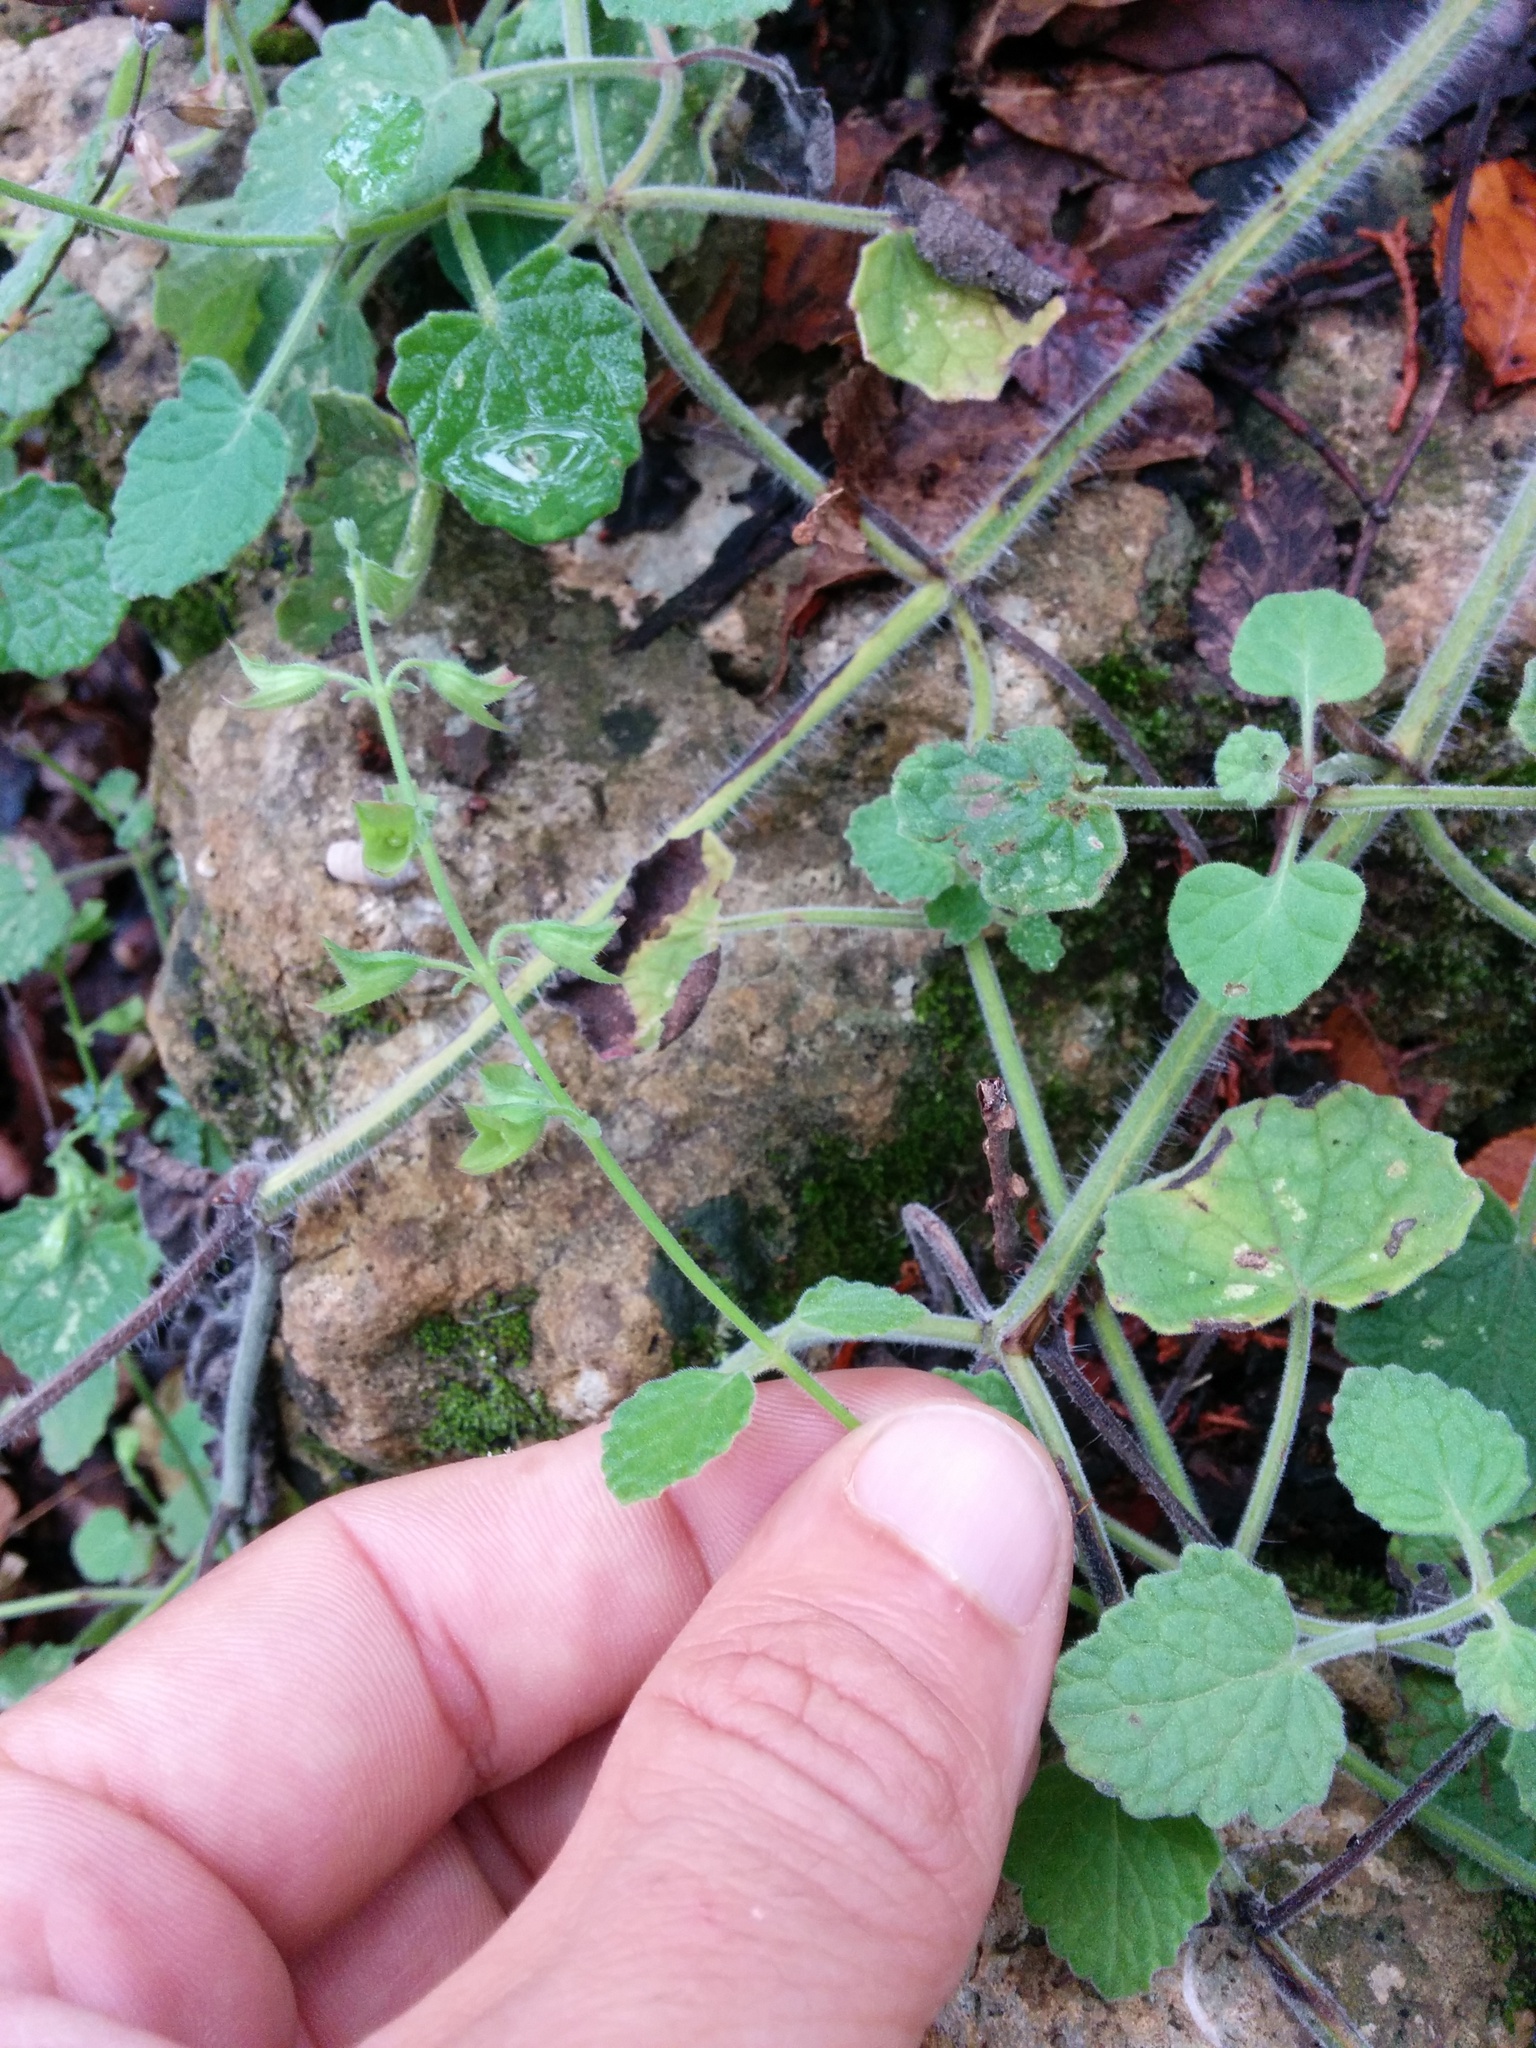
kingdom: Plantae
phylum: Tracheophyta
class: Magnoliopsida
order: Lamiales
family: Lamiaceae
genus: Salvia
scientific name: Salvia roemeriana
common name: Cedar sage
